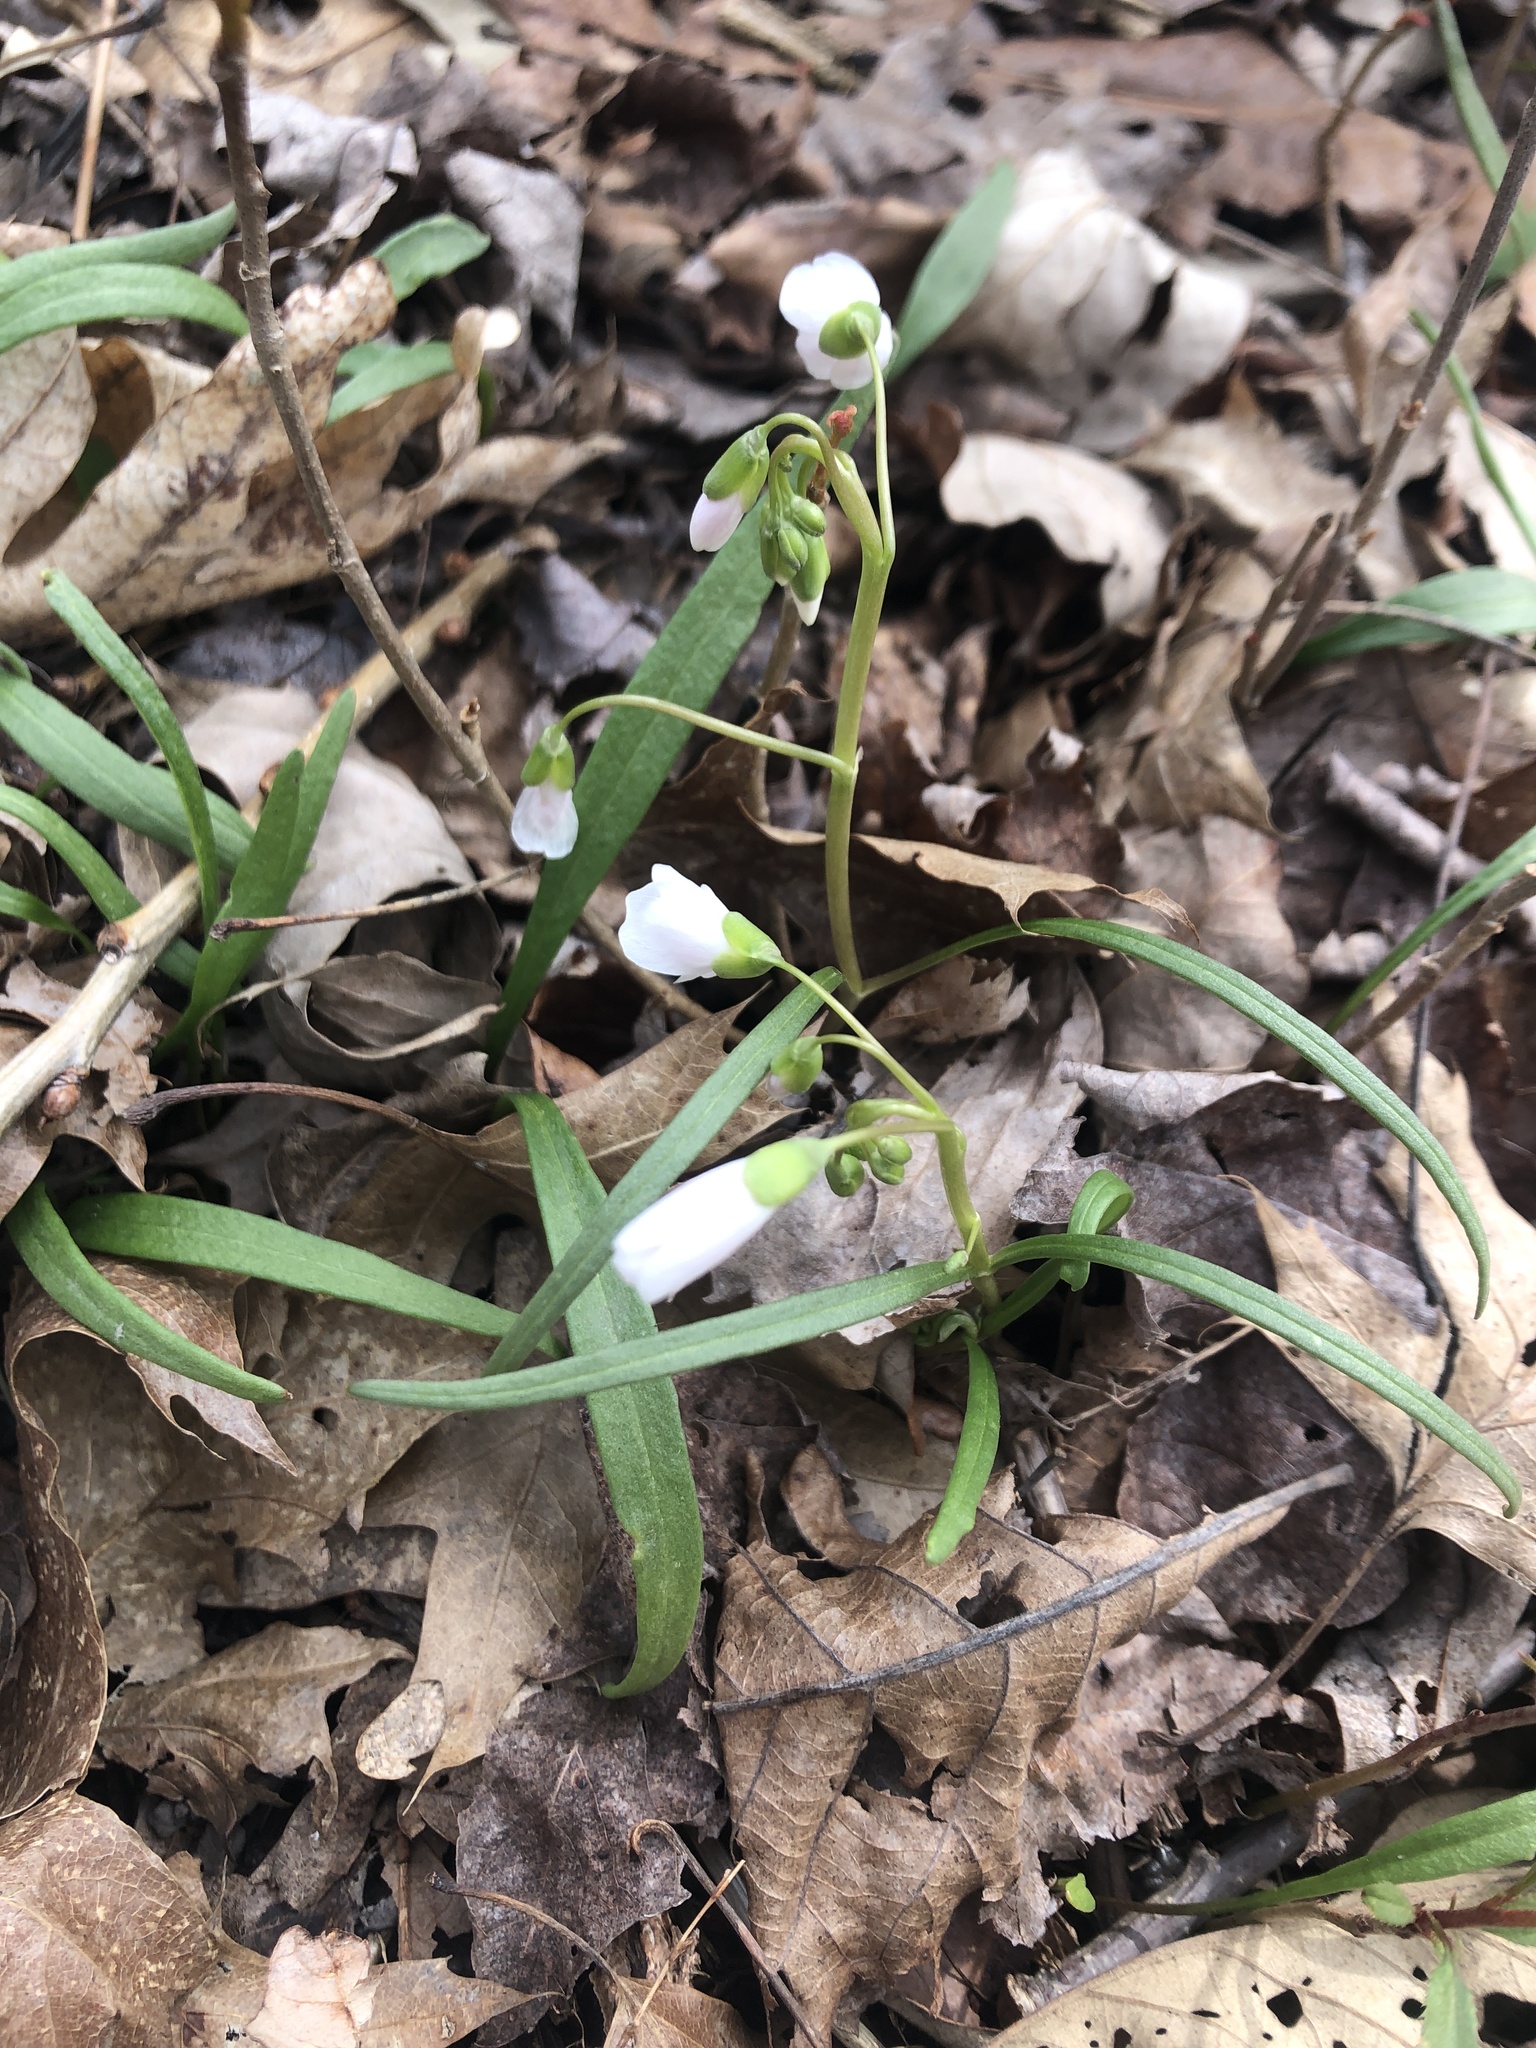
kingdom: Plantae
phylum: Tracheophyta
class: Magnoliopsida
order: Caryophyllales
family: Montiaceae
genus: Claytonia
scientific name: Claytonia virginica
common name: Virginia springbeauty
